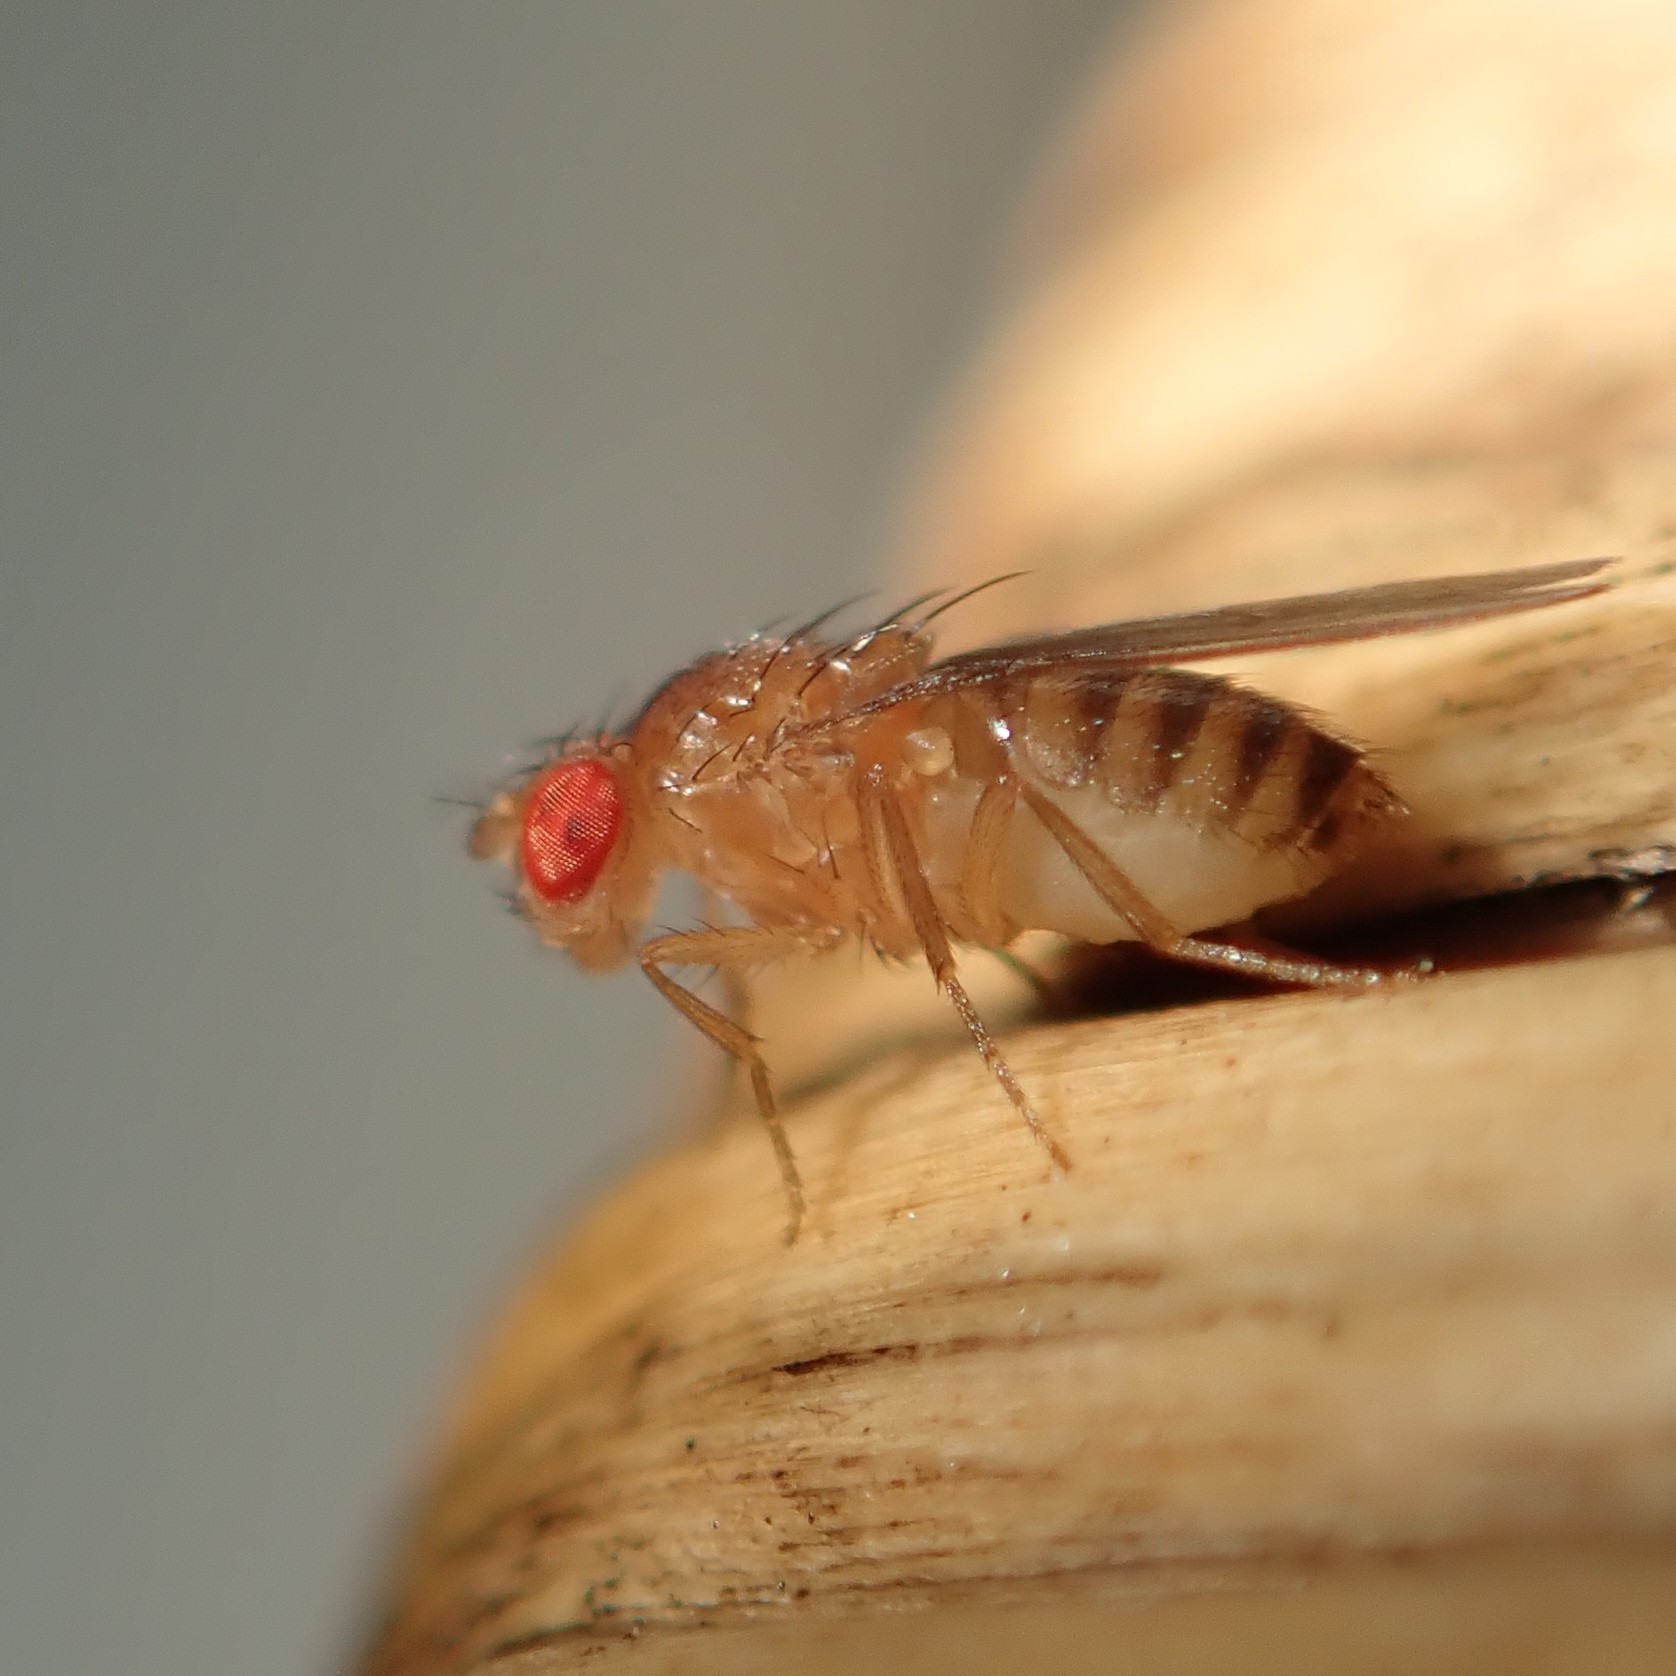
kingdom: Animalia
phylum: Arthropoda
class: Insecta
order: Diptera
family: Drosophilidae
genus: Drosophila
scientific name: Drosophila melanogaster
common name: Pomace fly
